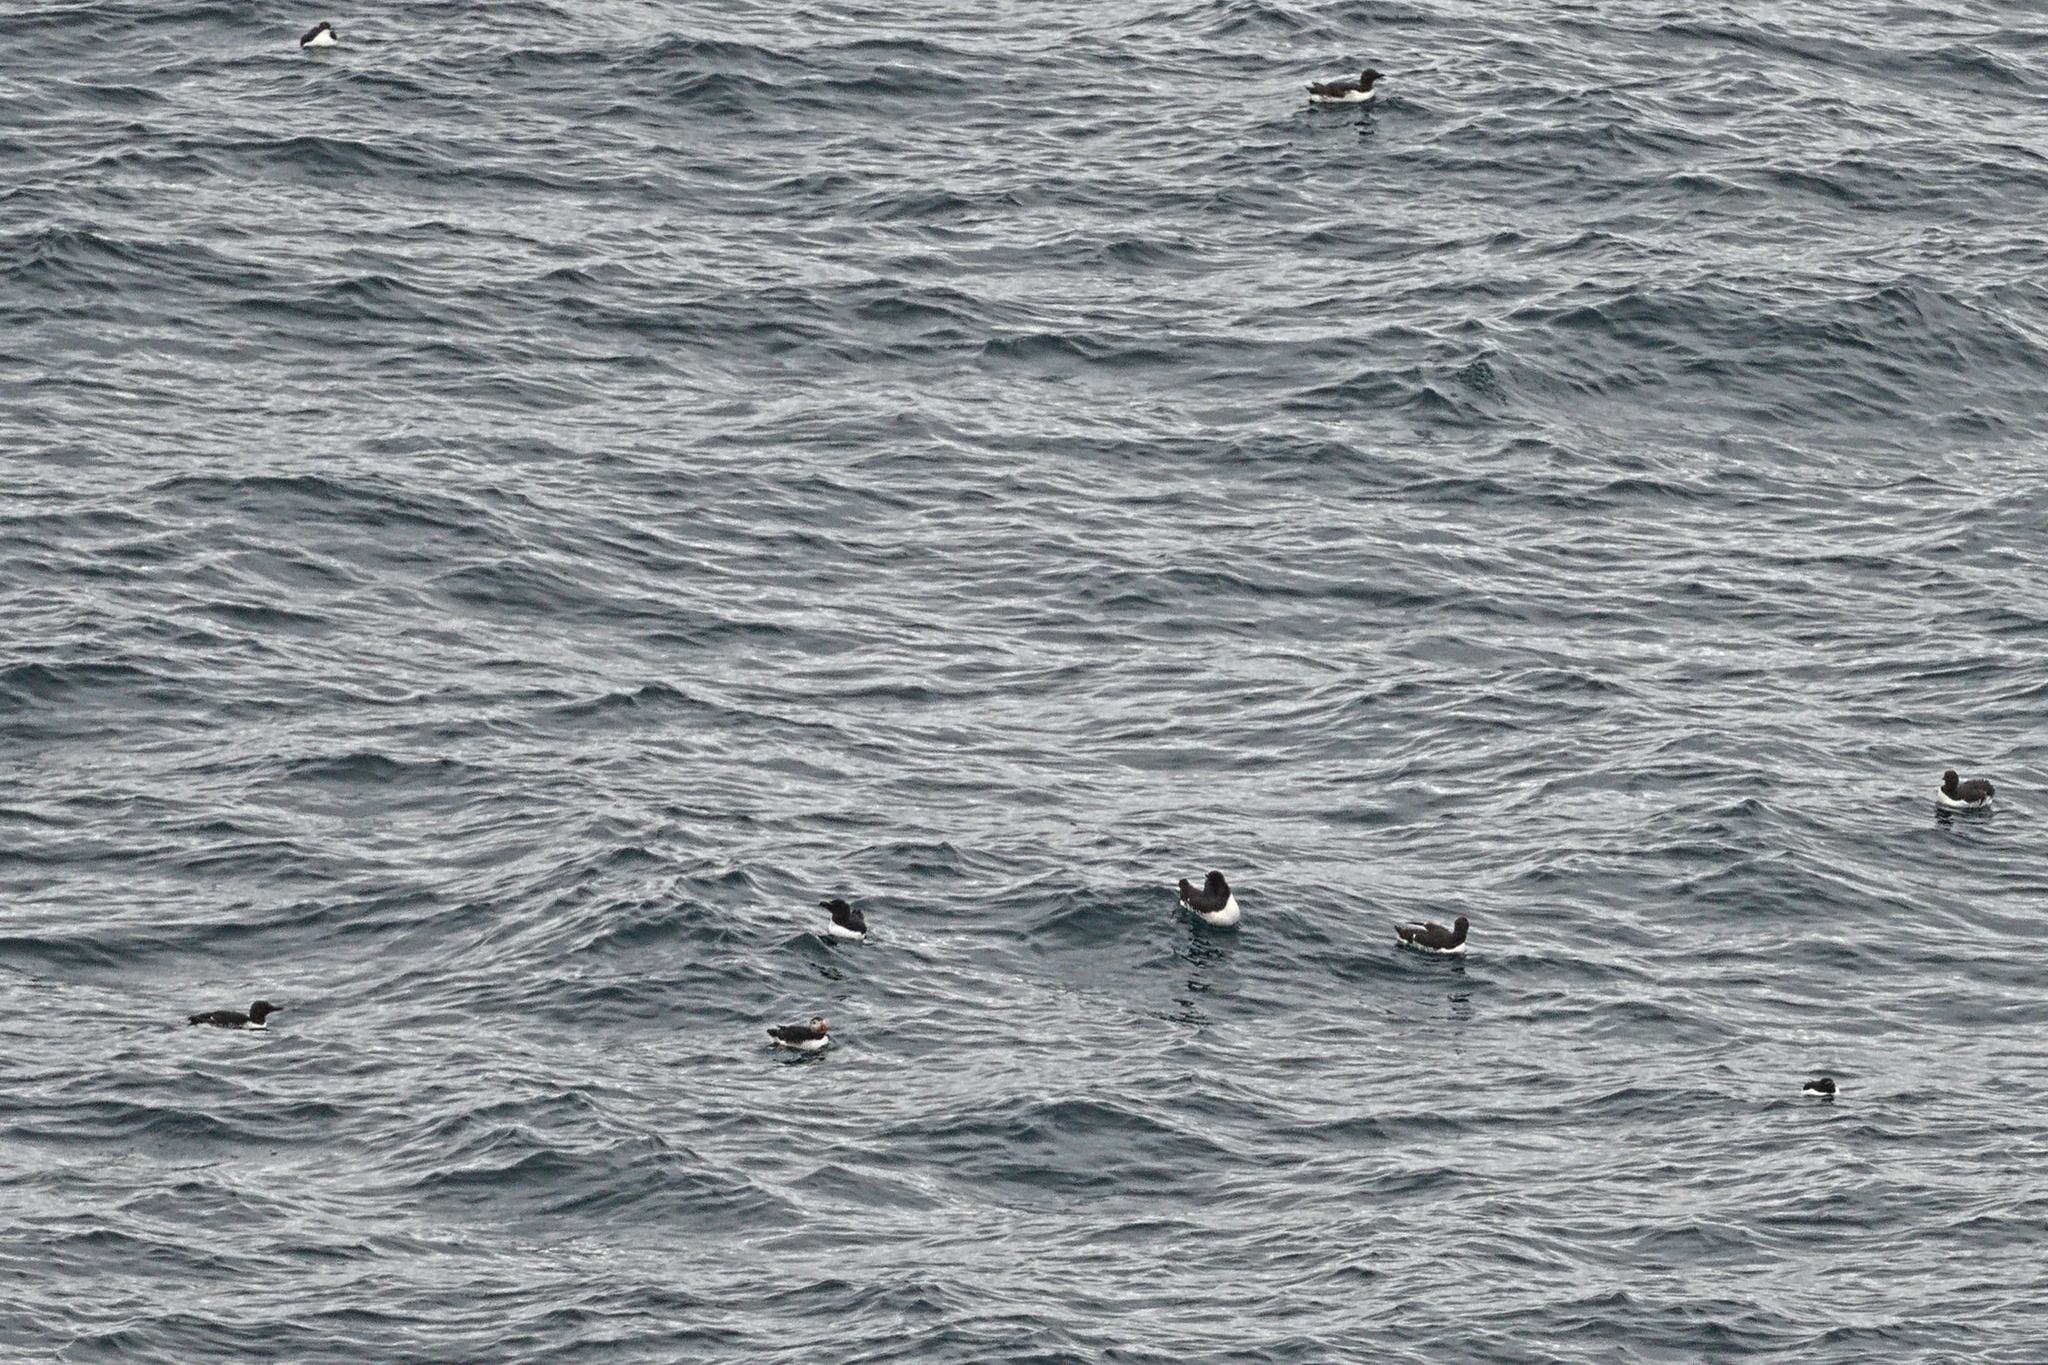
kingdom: Animalia
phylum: Chordata
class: Aves
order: Charadriiformes
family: Alcidae
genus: Fratercula
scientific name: Fratercula arctica
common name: Atlantic puffin
